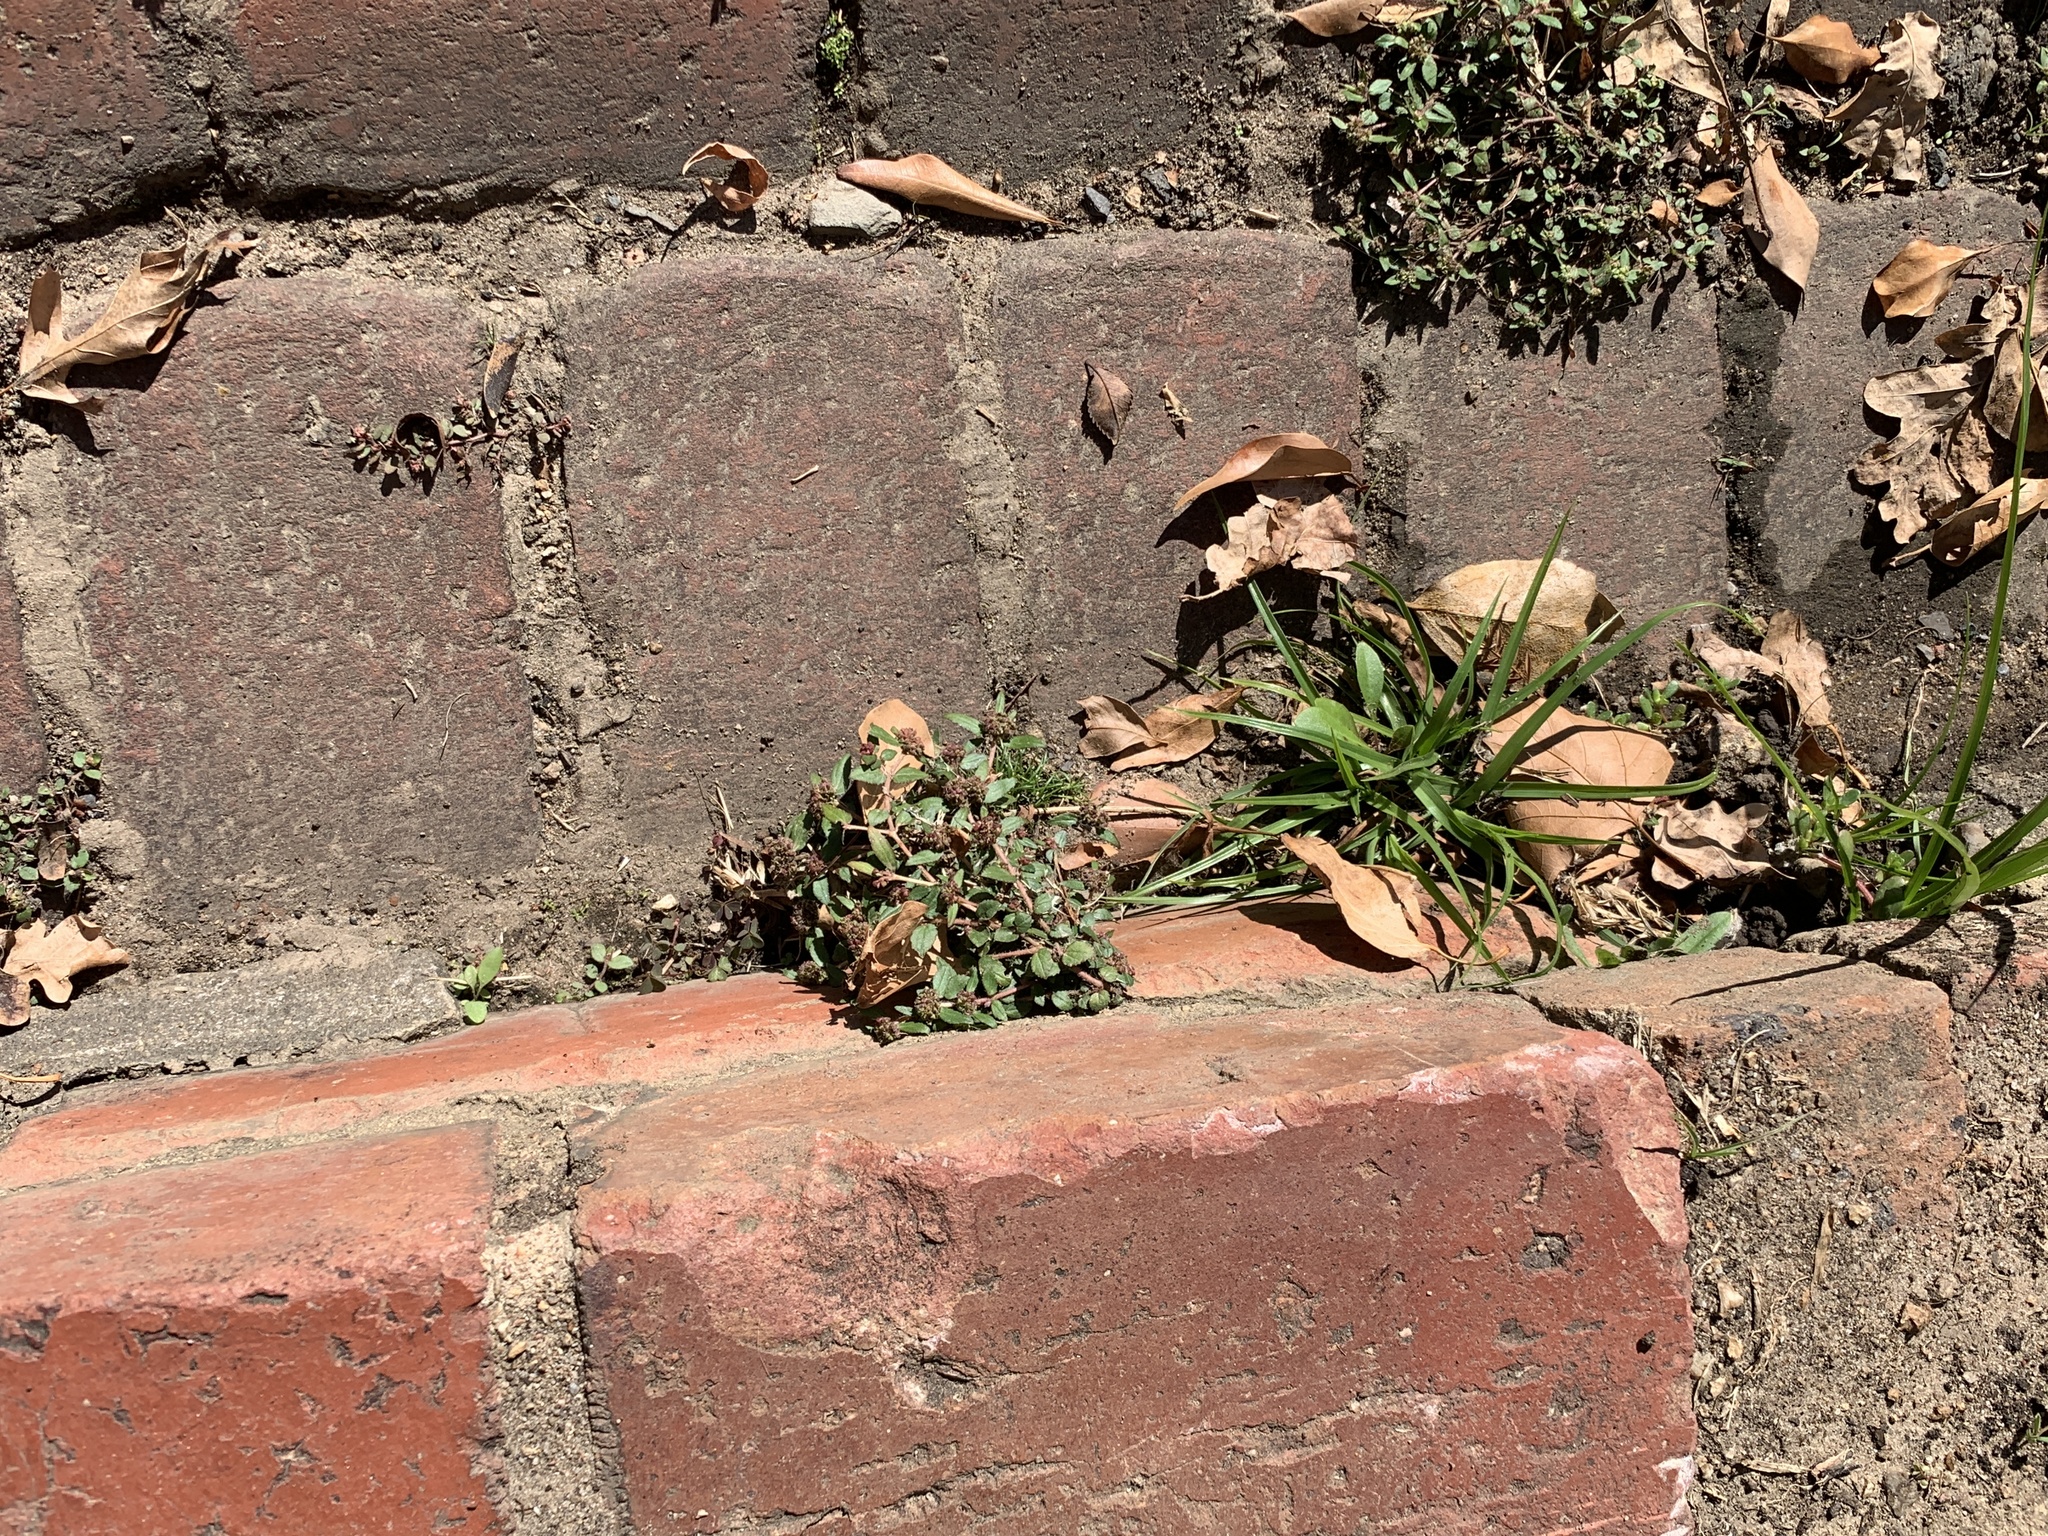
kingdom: Plantae
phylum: Tracheophyta
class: Magnoliopsida
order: Malpighiales
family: Euphorbiaceae
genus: Euphorbia
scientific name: Euphorbia ophthalmica
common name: Florida hammock sandmat
